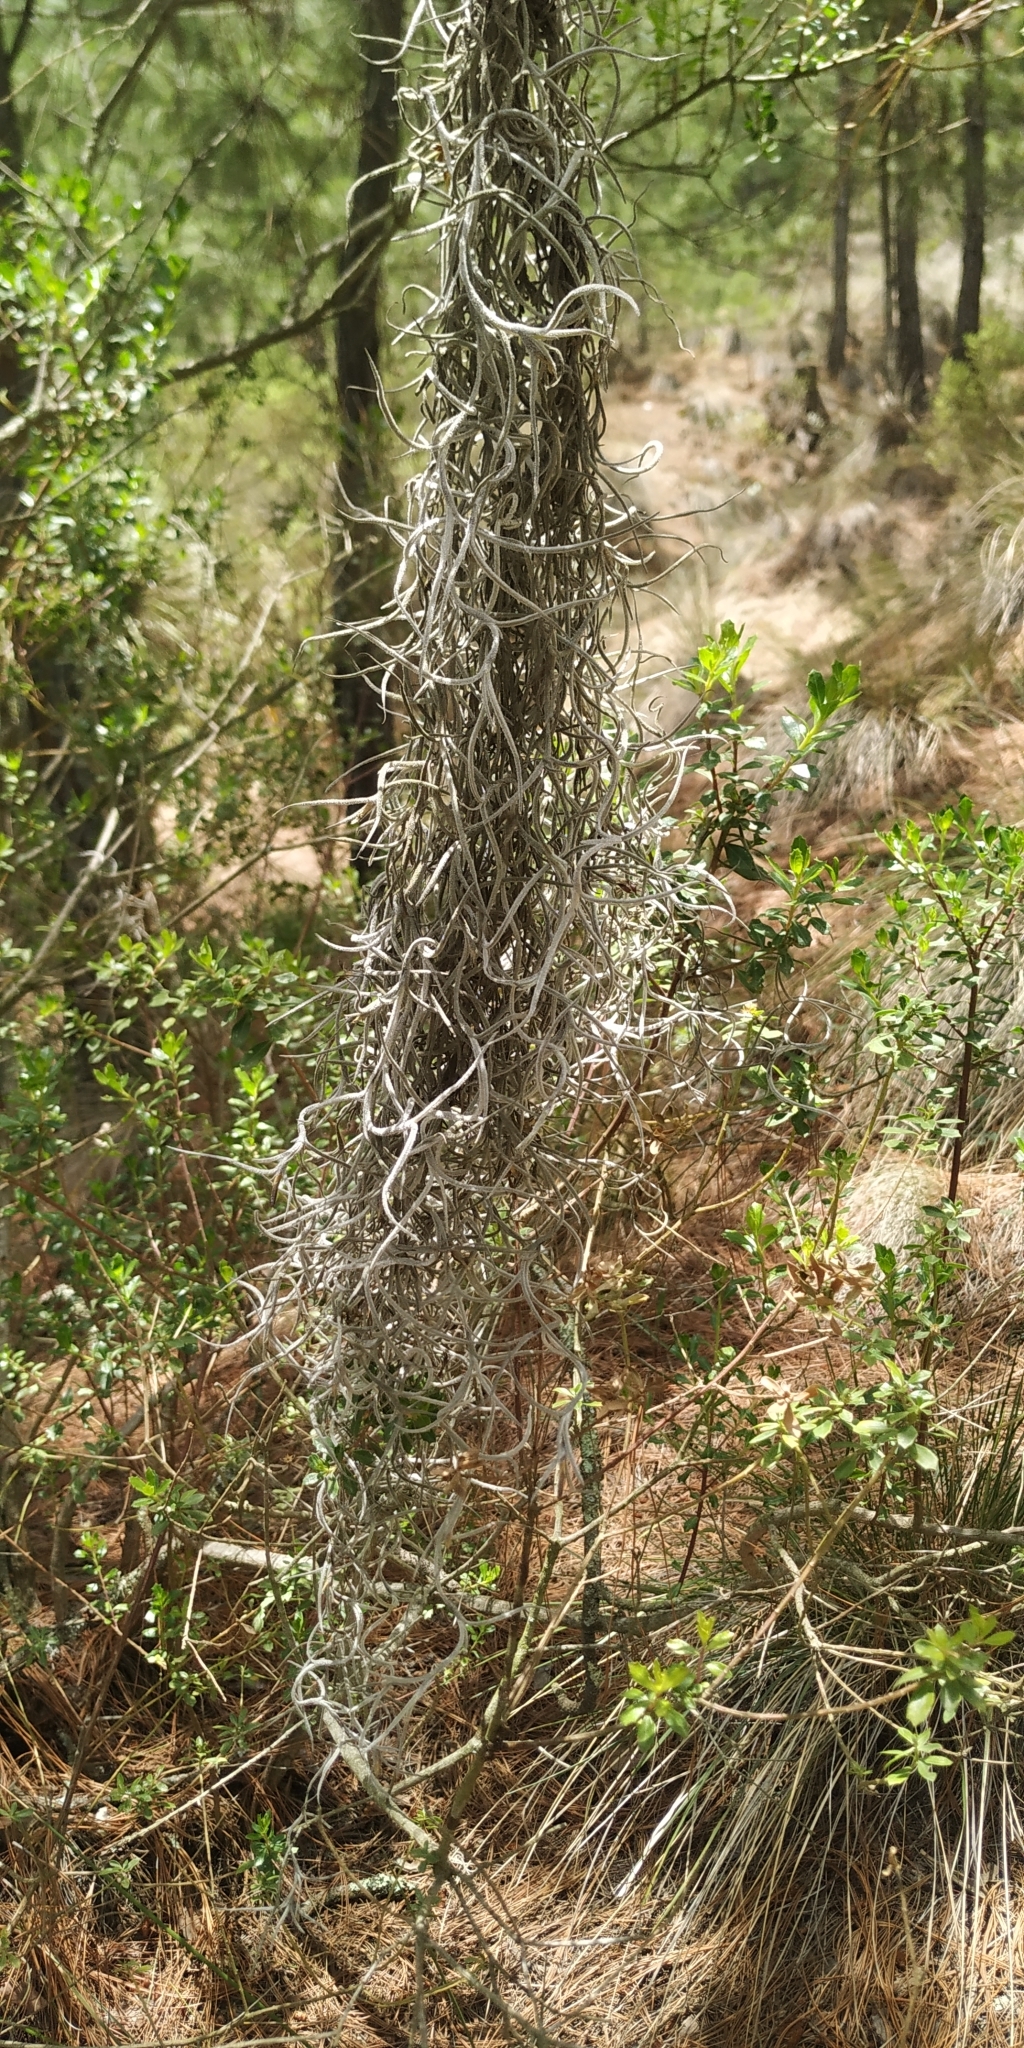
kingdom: Plantae
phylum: Tracheophyta
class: Liliopsida
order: Poales
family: Bromeliaceae
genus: Tillandsia
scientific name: Tillandsia usneoides
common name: Spanish moss
